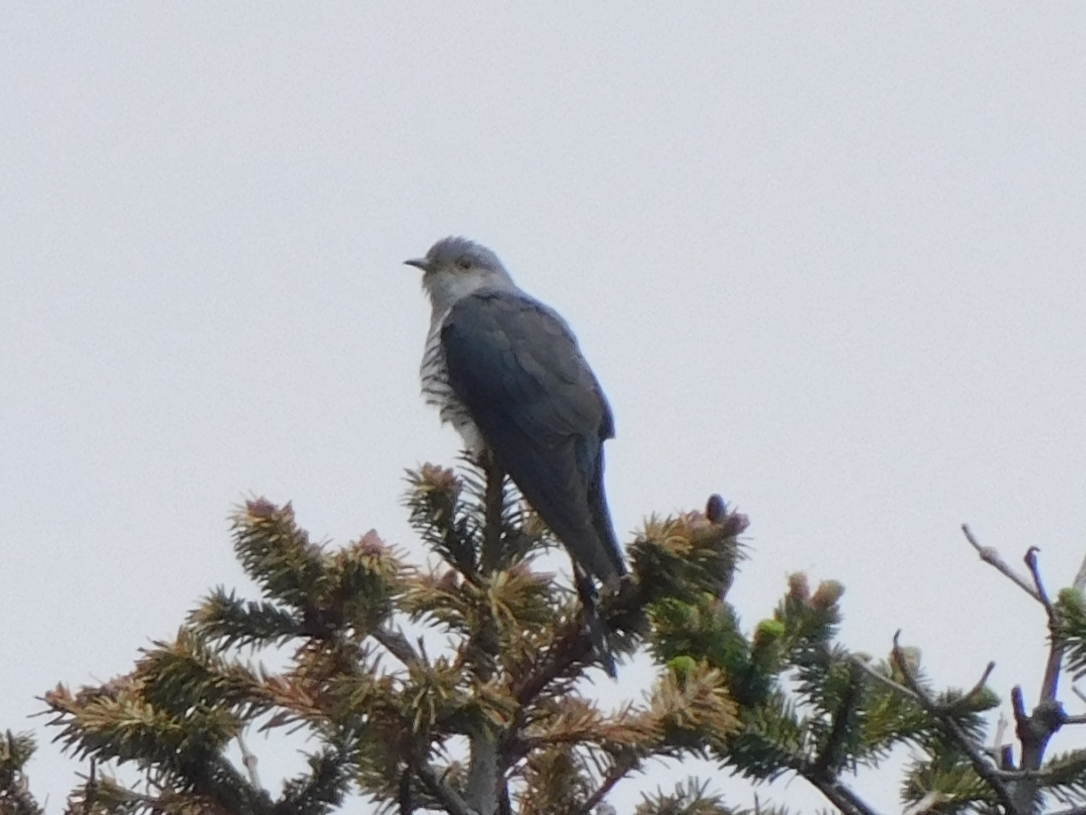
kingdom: Animalia
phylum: Chordata
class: Aves
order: Cuculiformes
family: Cuculidae
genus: Cuculus
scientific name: Cuculus poliocephalus
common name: Lesser cuckoo
